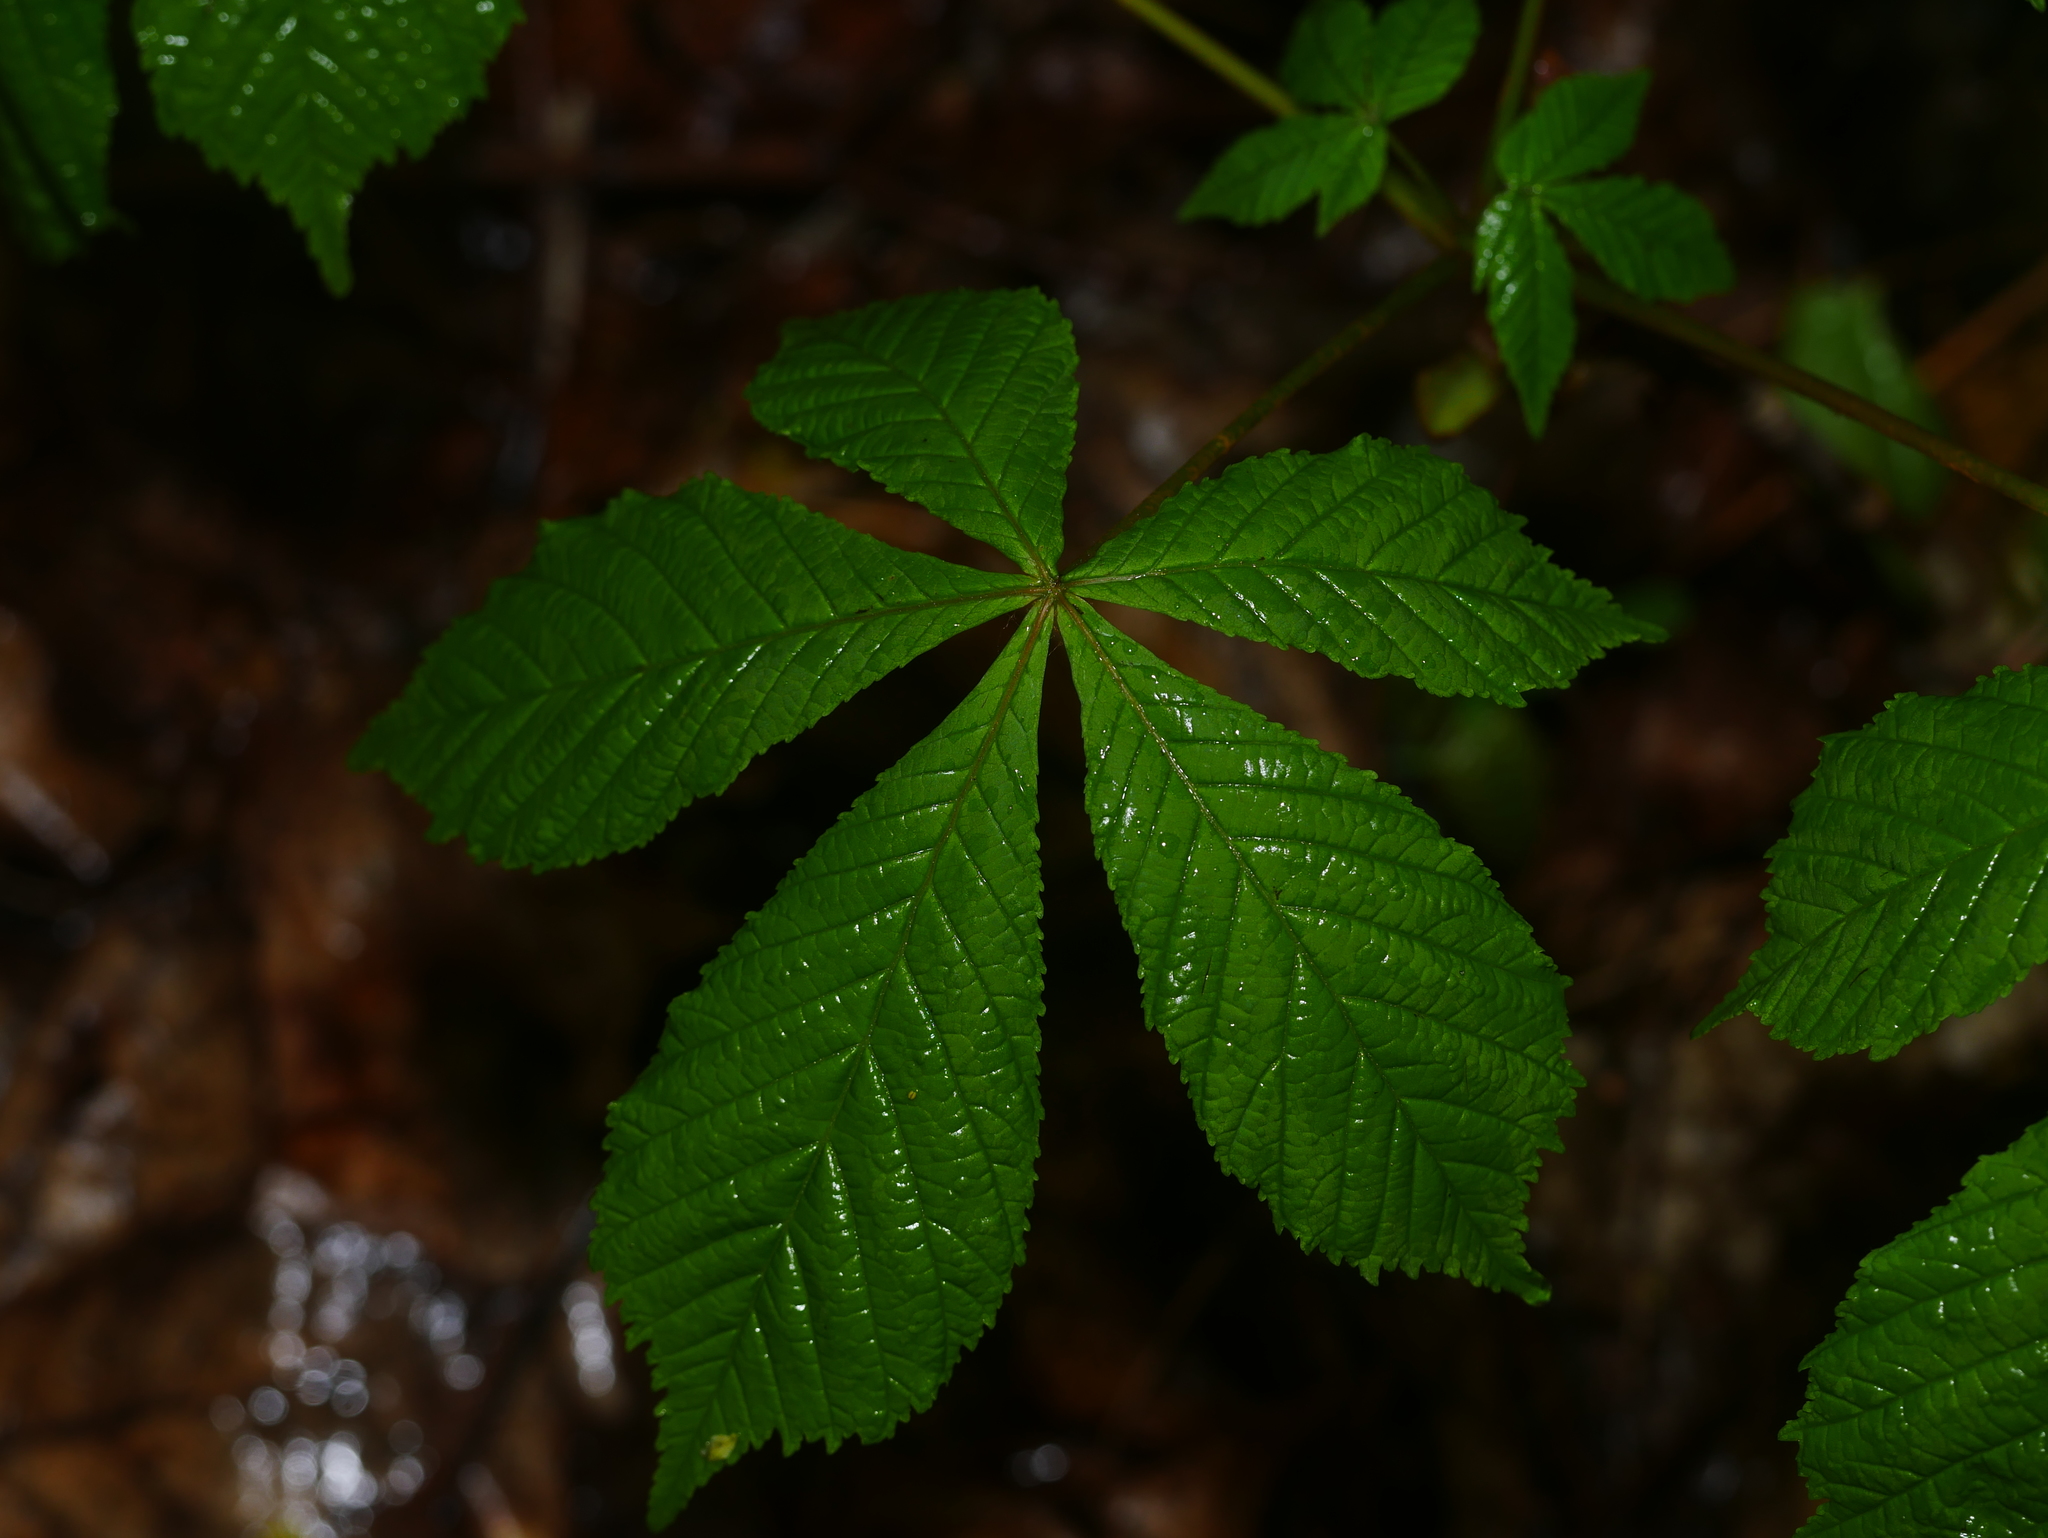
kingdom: Plantae
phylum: Tracheophyta
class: Magnoliopsida
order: Sapindales
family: Sapindaceae
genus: Aesculus
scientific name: Aesculus hippocastanum
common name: Horse-chestnut
